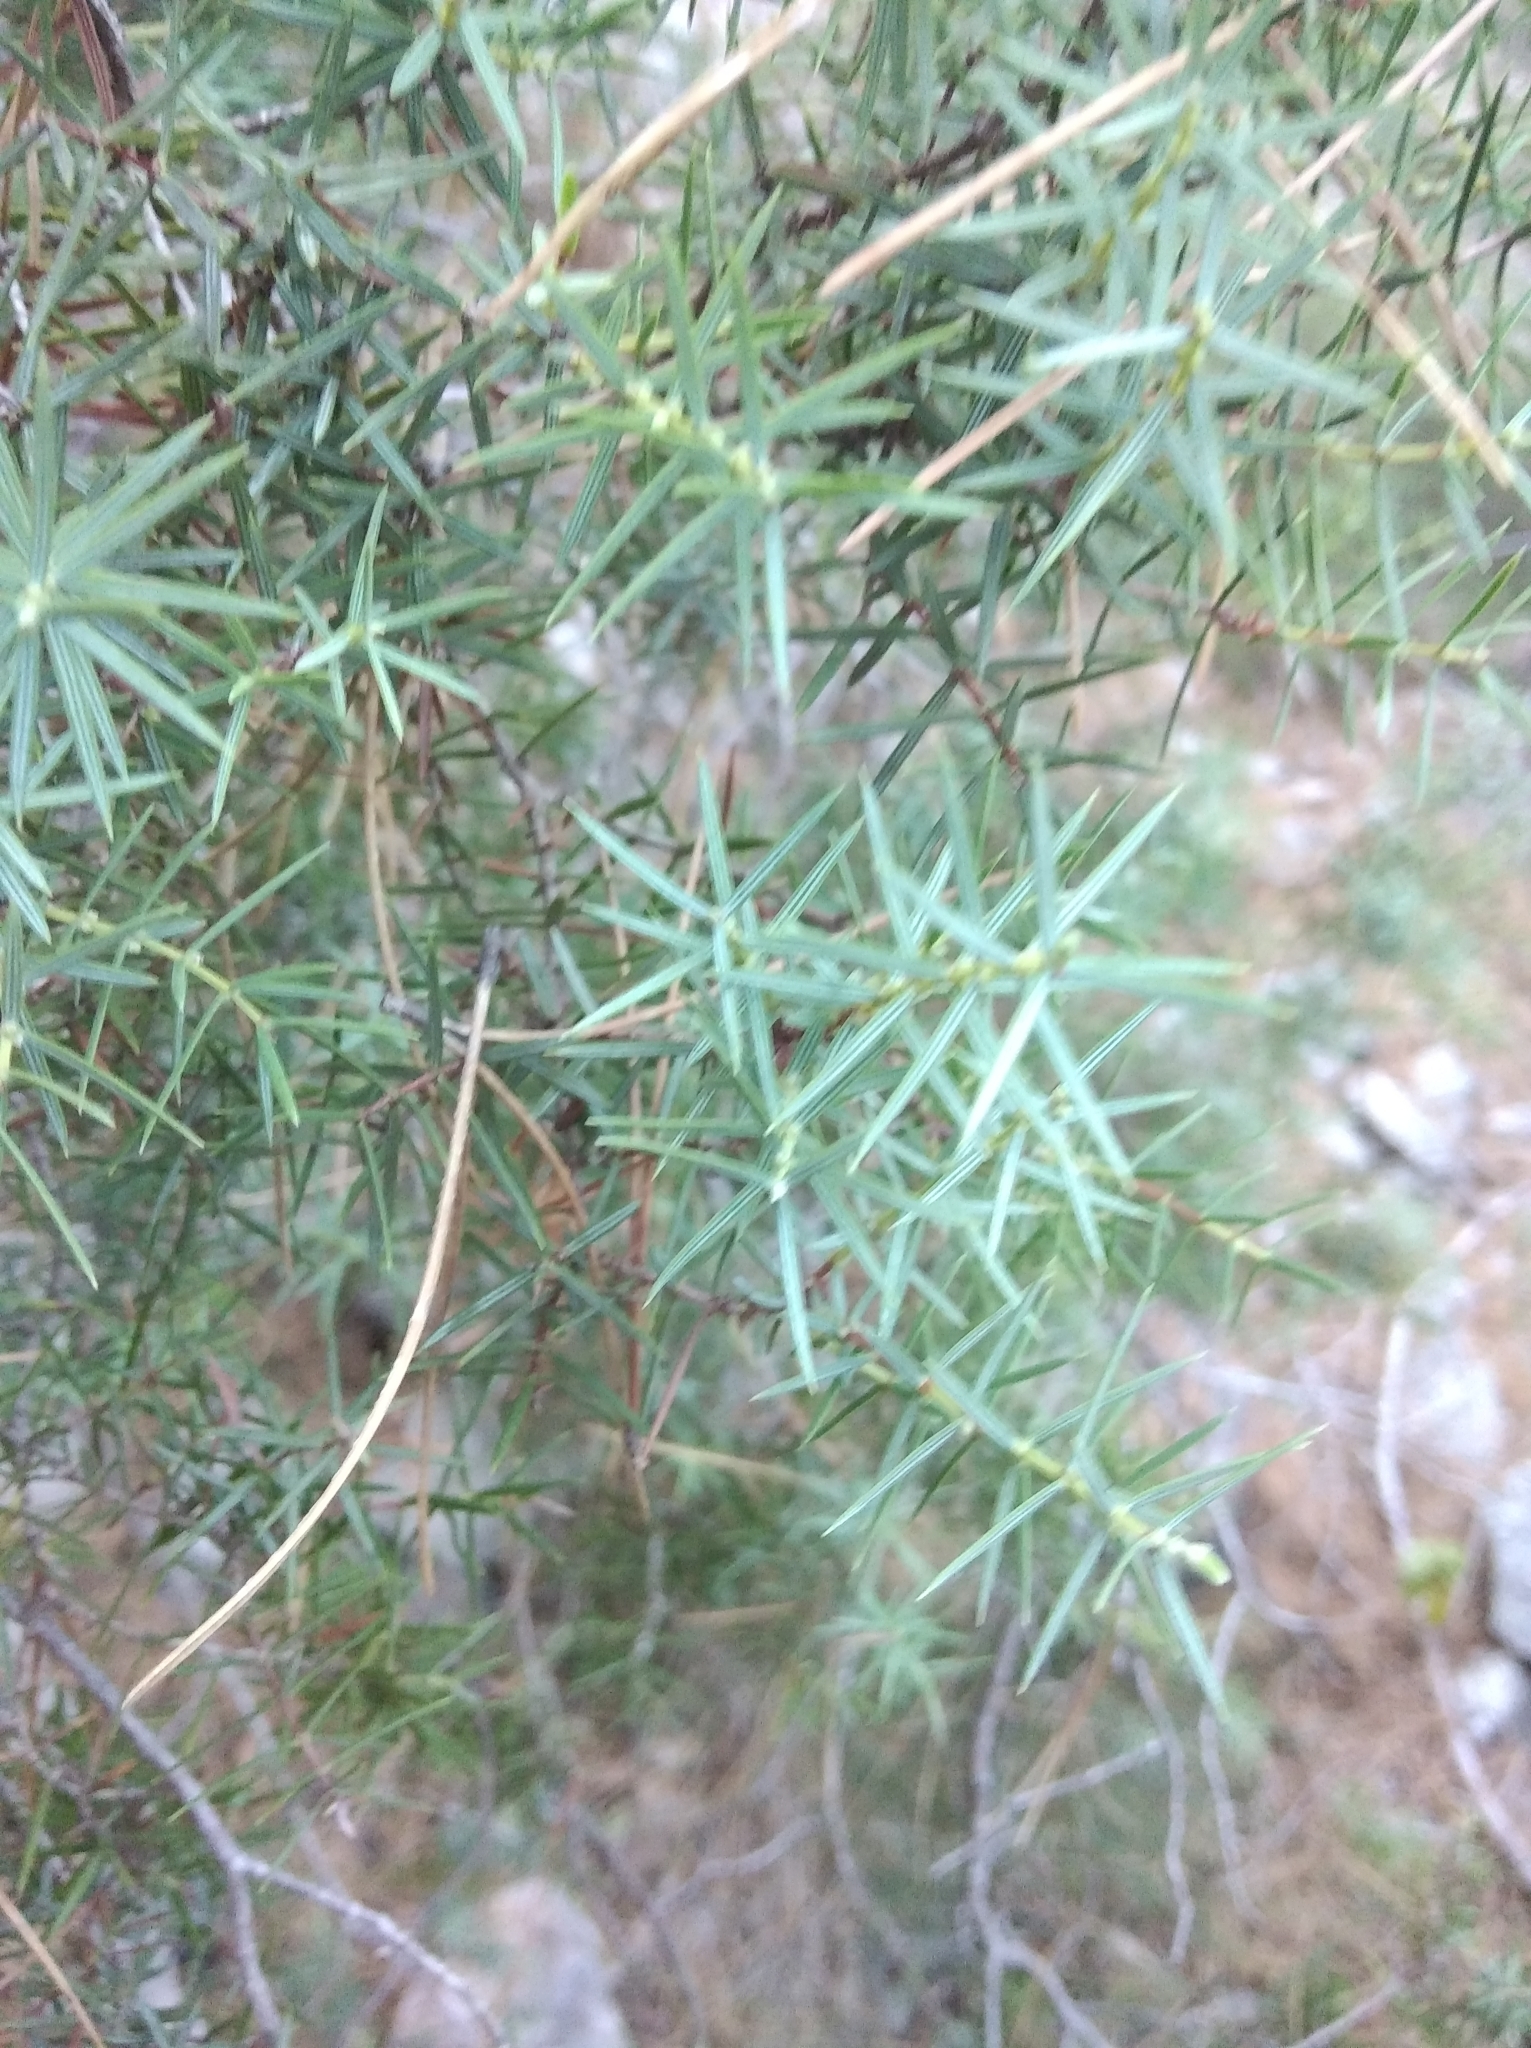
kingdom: Plantae
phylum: Tracheophyta
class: Pinopsida
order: Pinales
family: Cupressaceae
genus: Juniperus
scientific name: Juniperus oxycedrus
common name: Prickly juniper
